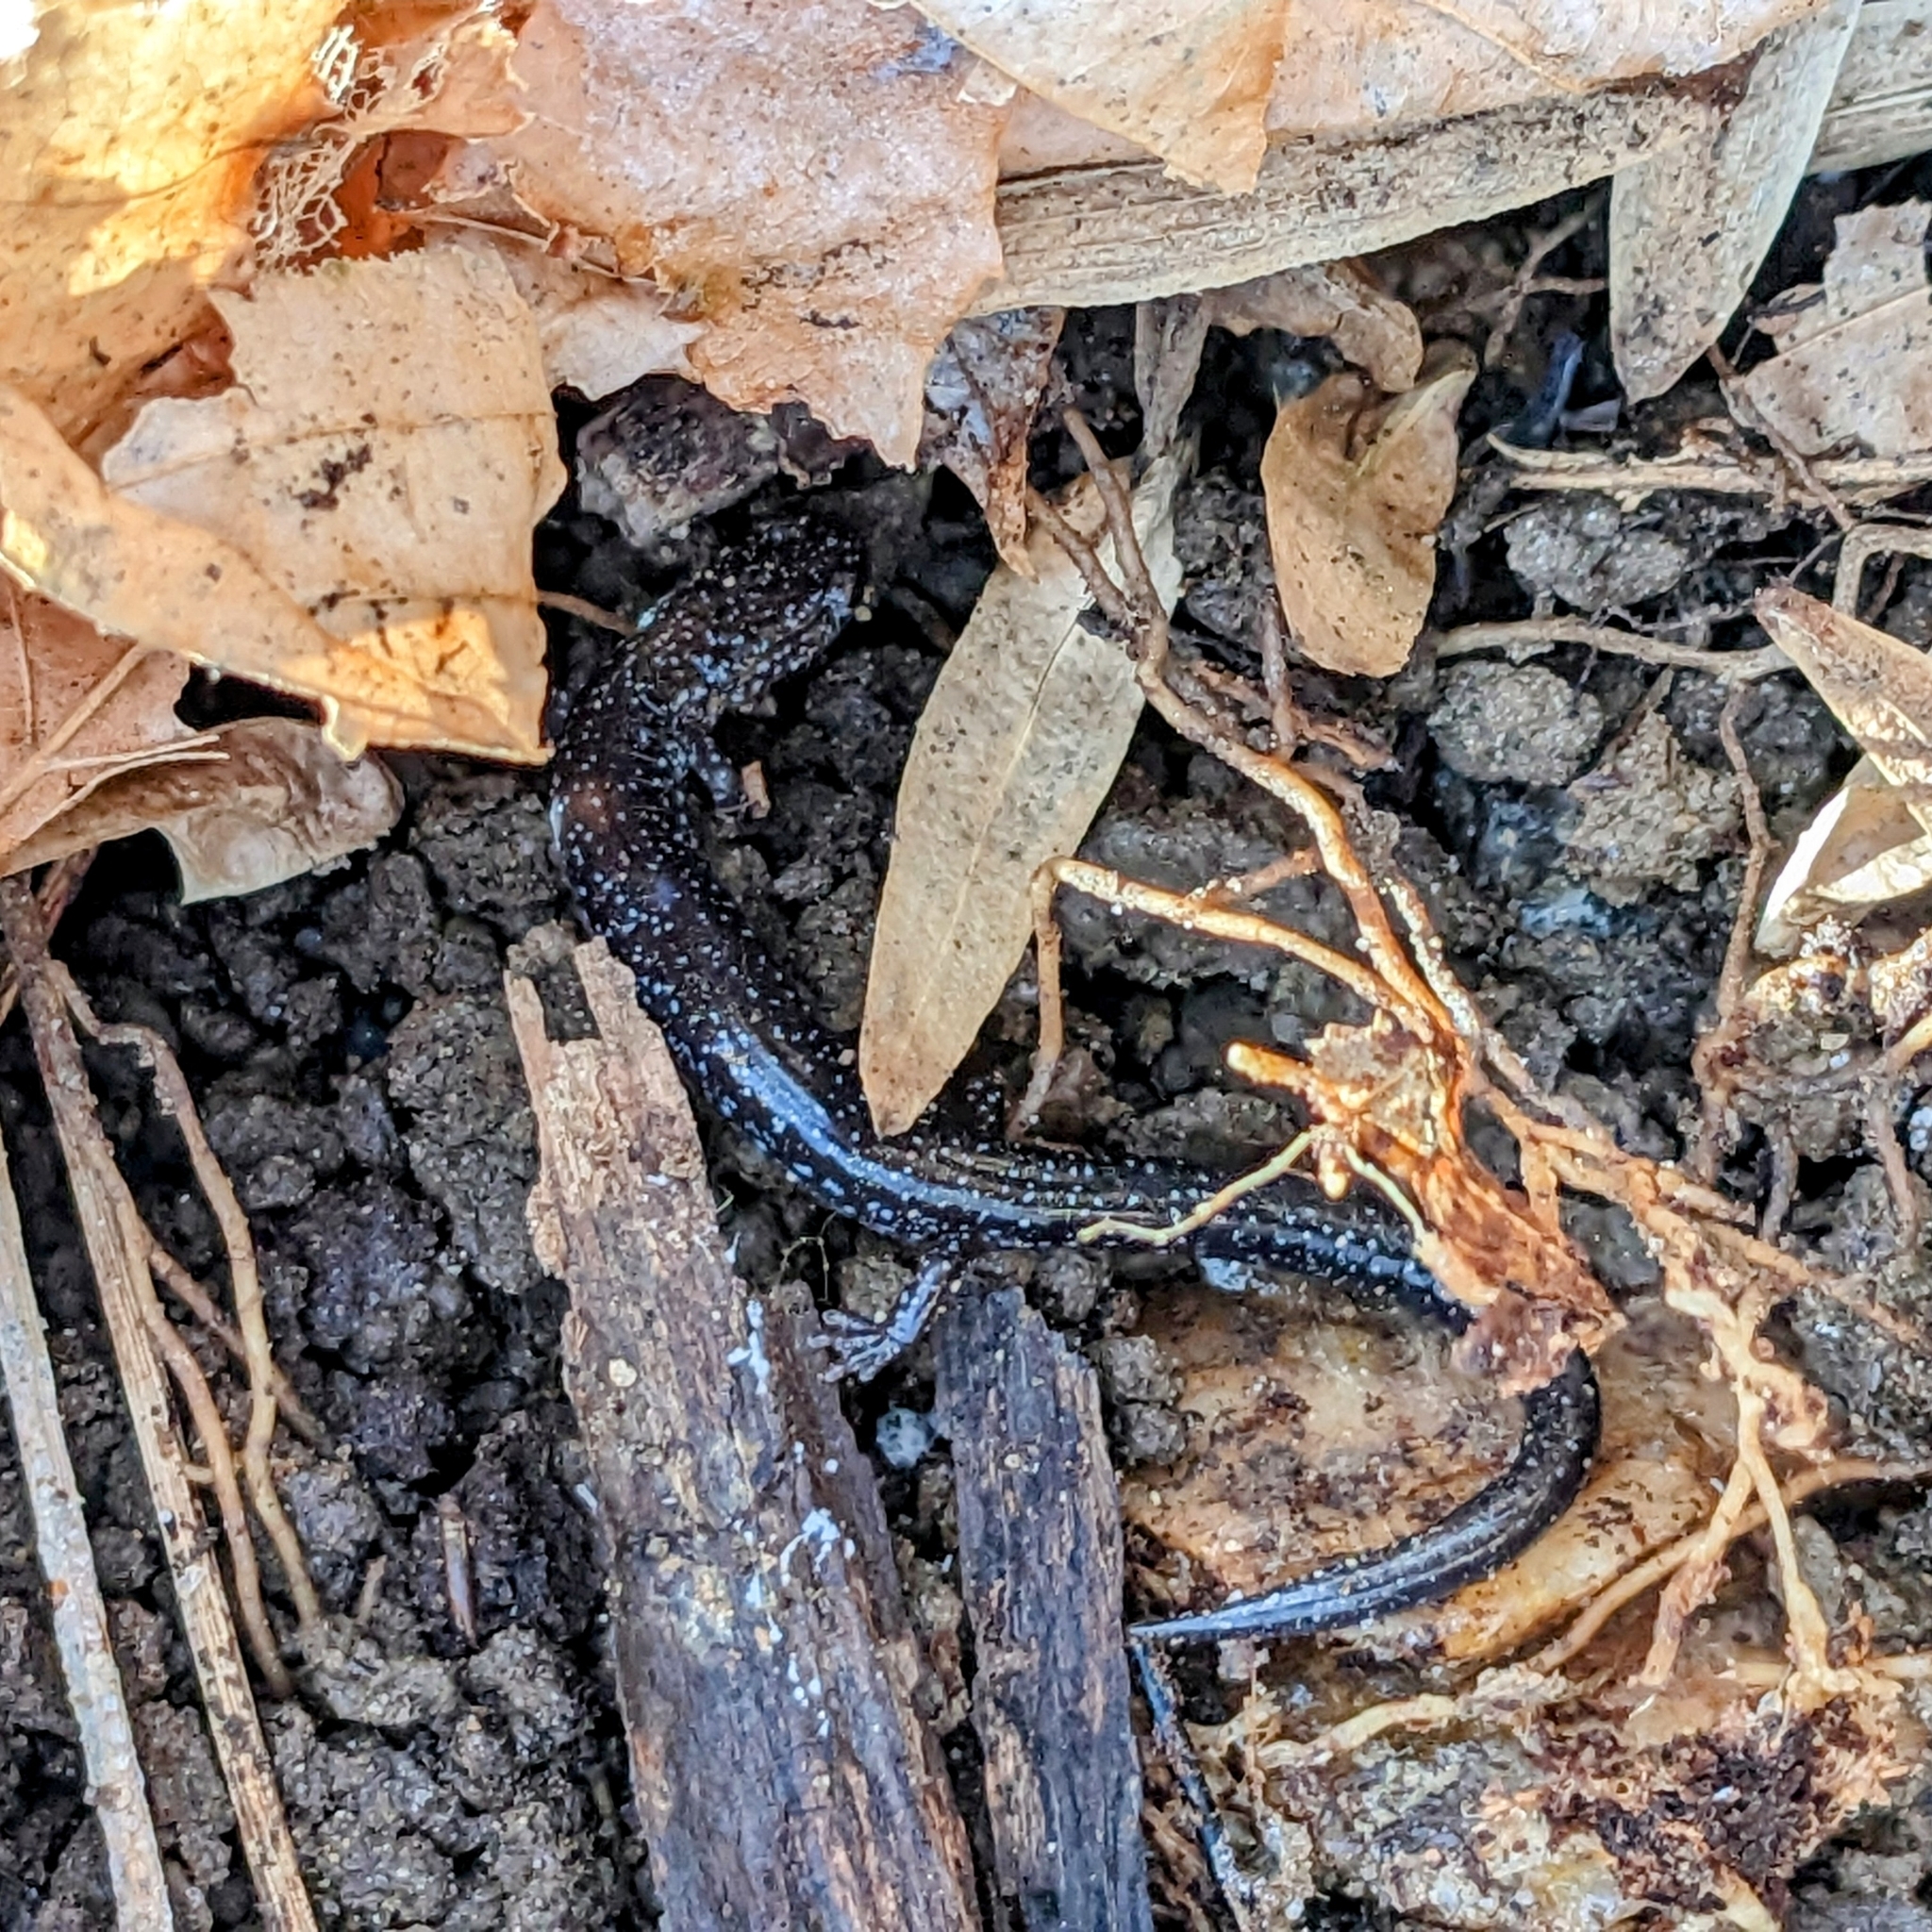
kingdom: Animalia
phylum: Chordata
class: Amphibia
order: Caudata
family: Plethodontidae
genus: Plethodon
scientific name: Plethodon cinereus
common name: Redback salamander
